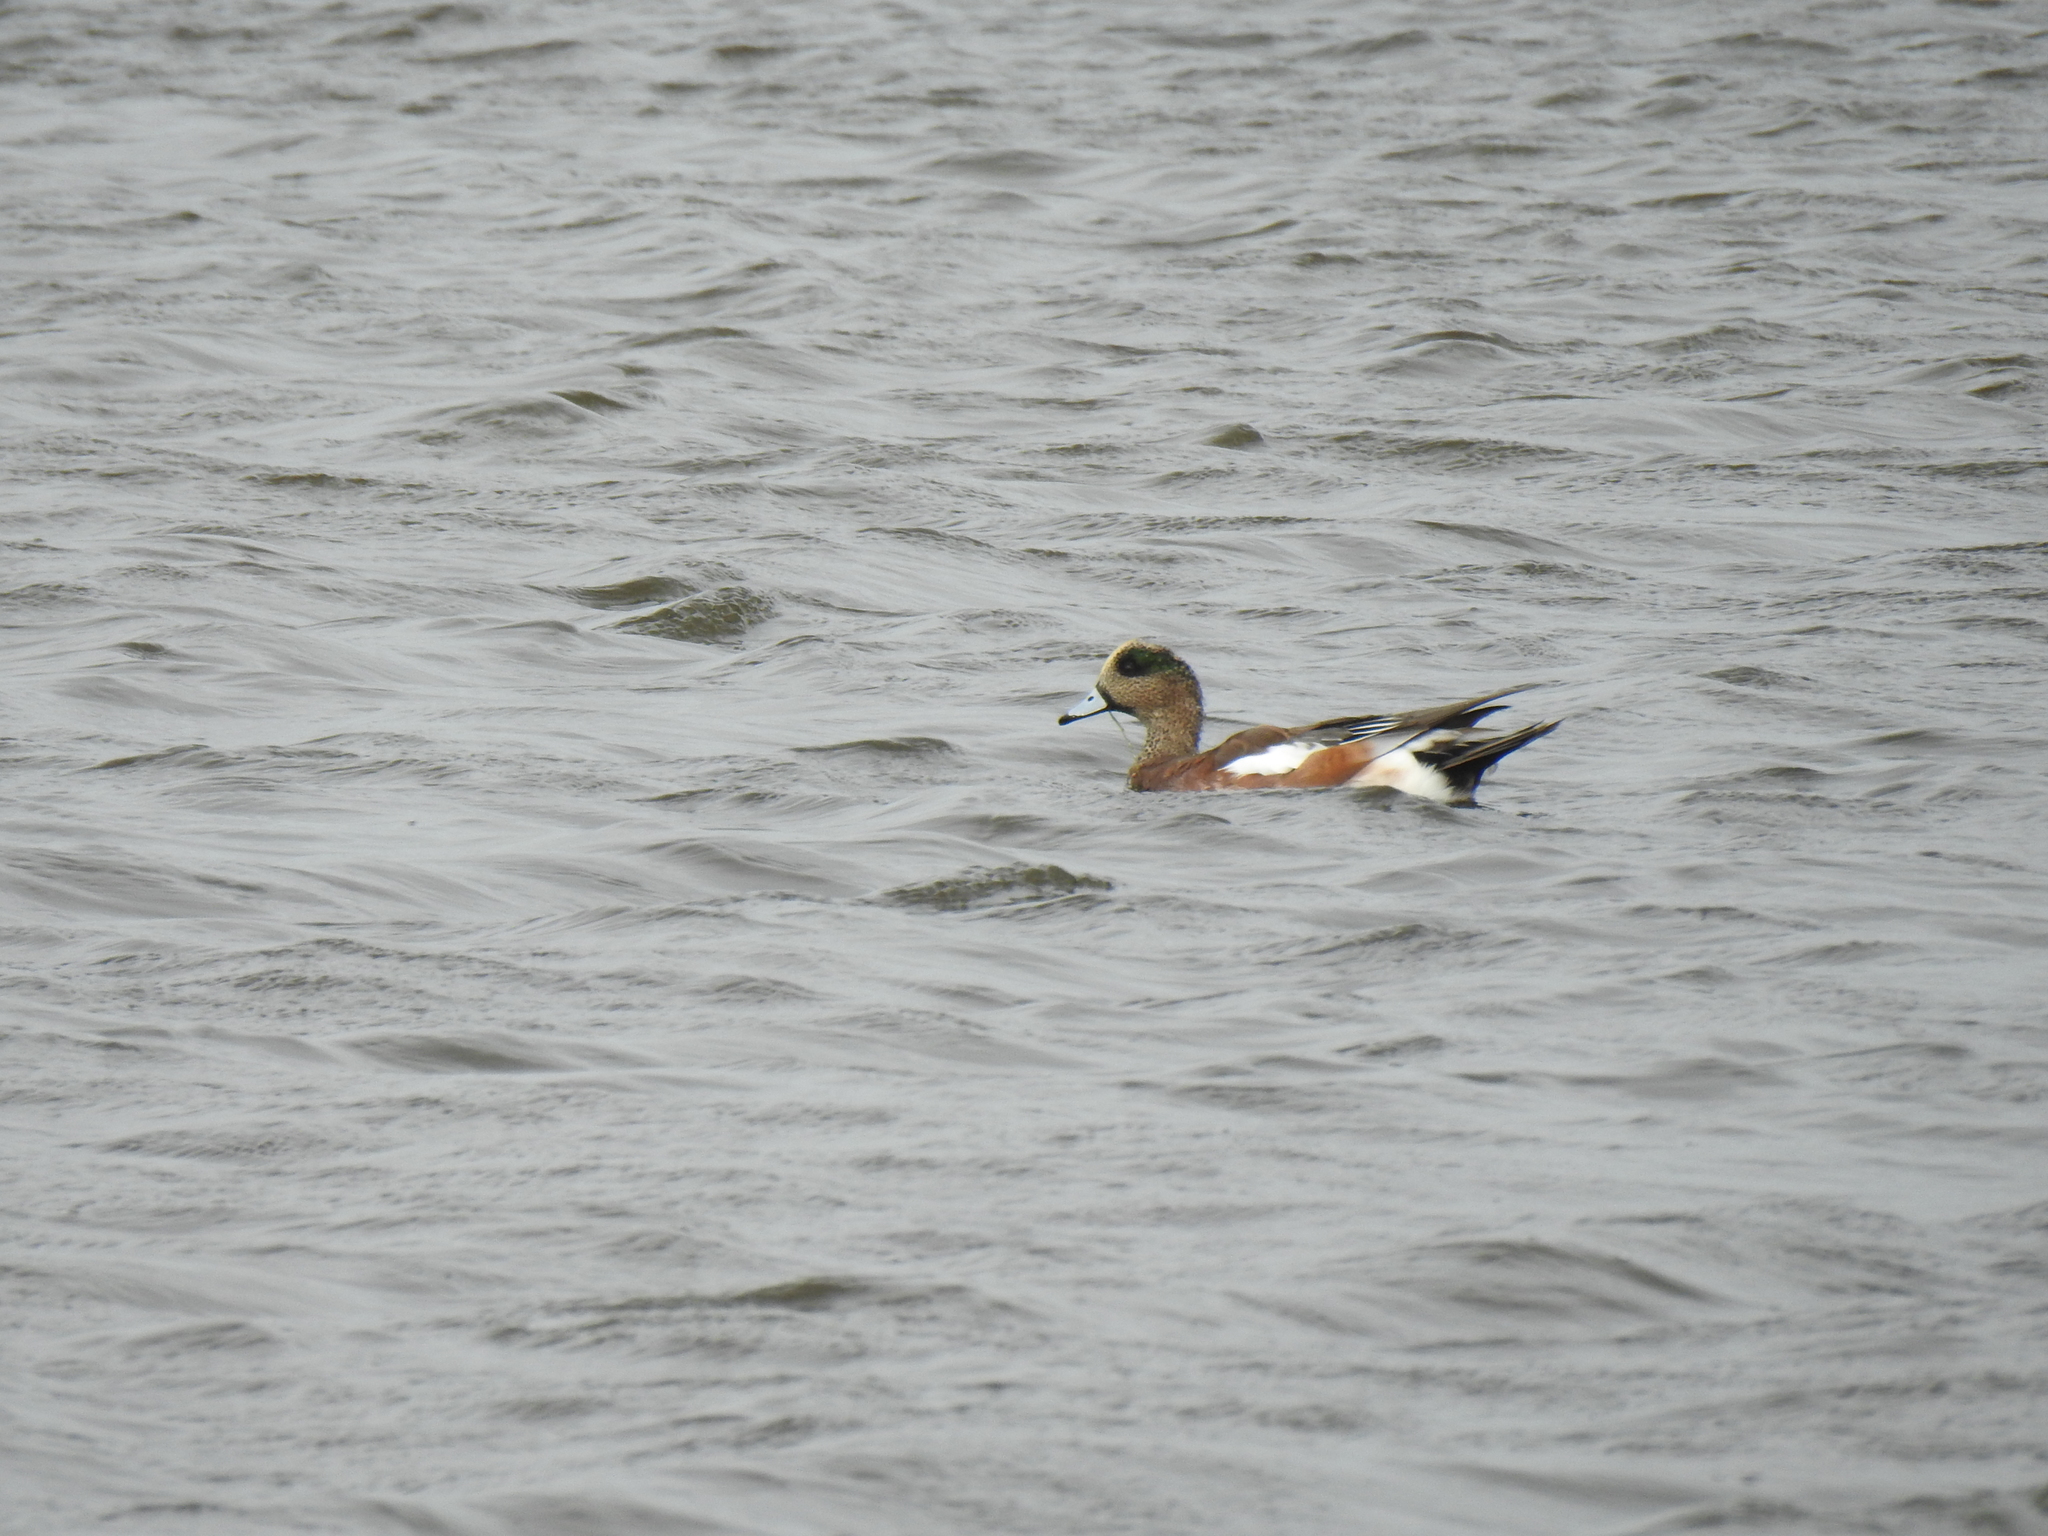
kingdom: Animalia
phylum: Chordata
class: Aves
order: Anseriformes
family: Anatidae
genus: Mareca
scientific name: Mareca americana
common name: American wigeon
